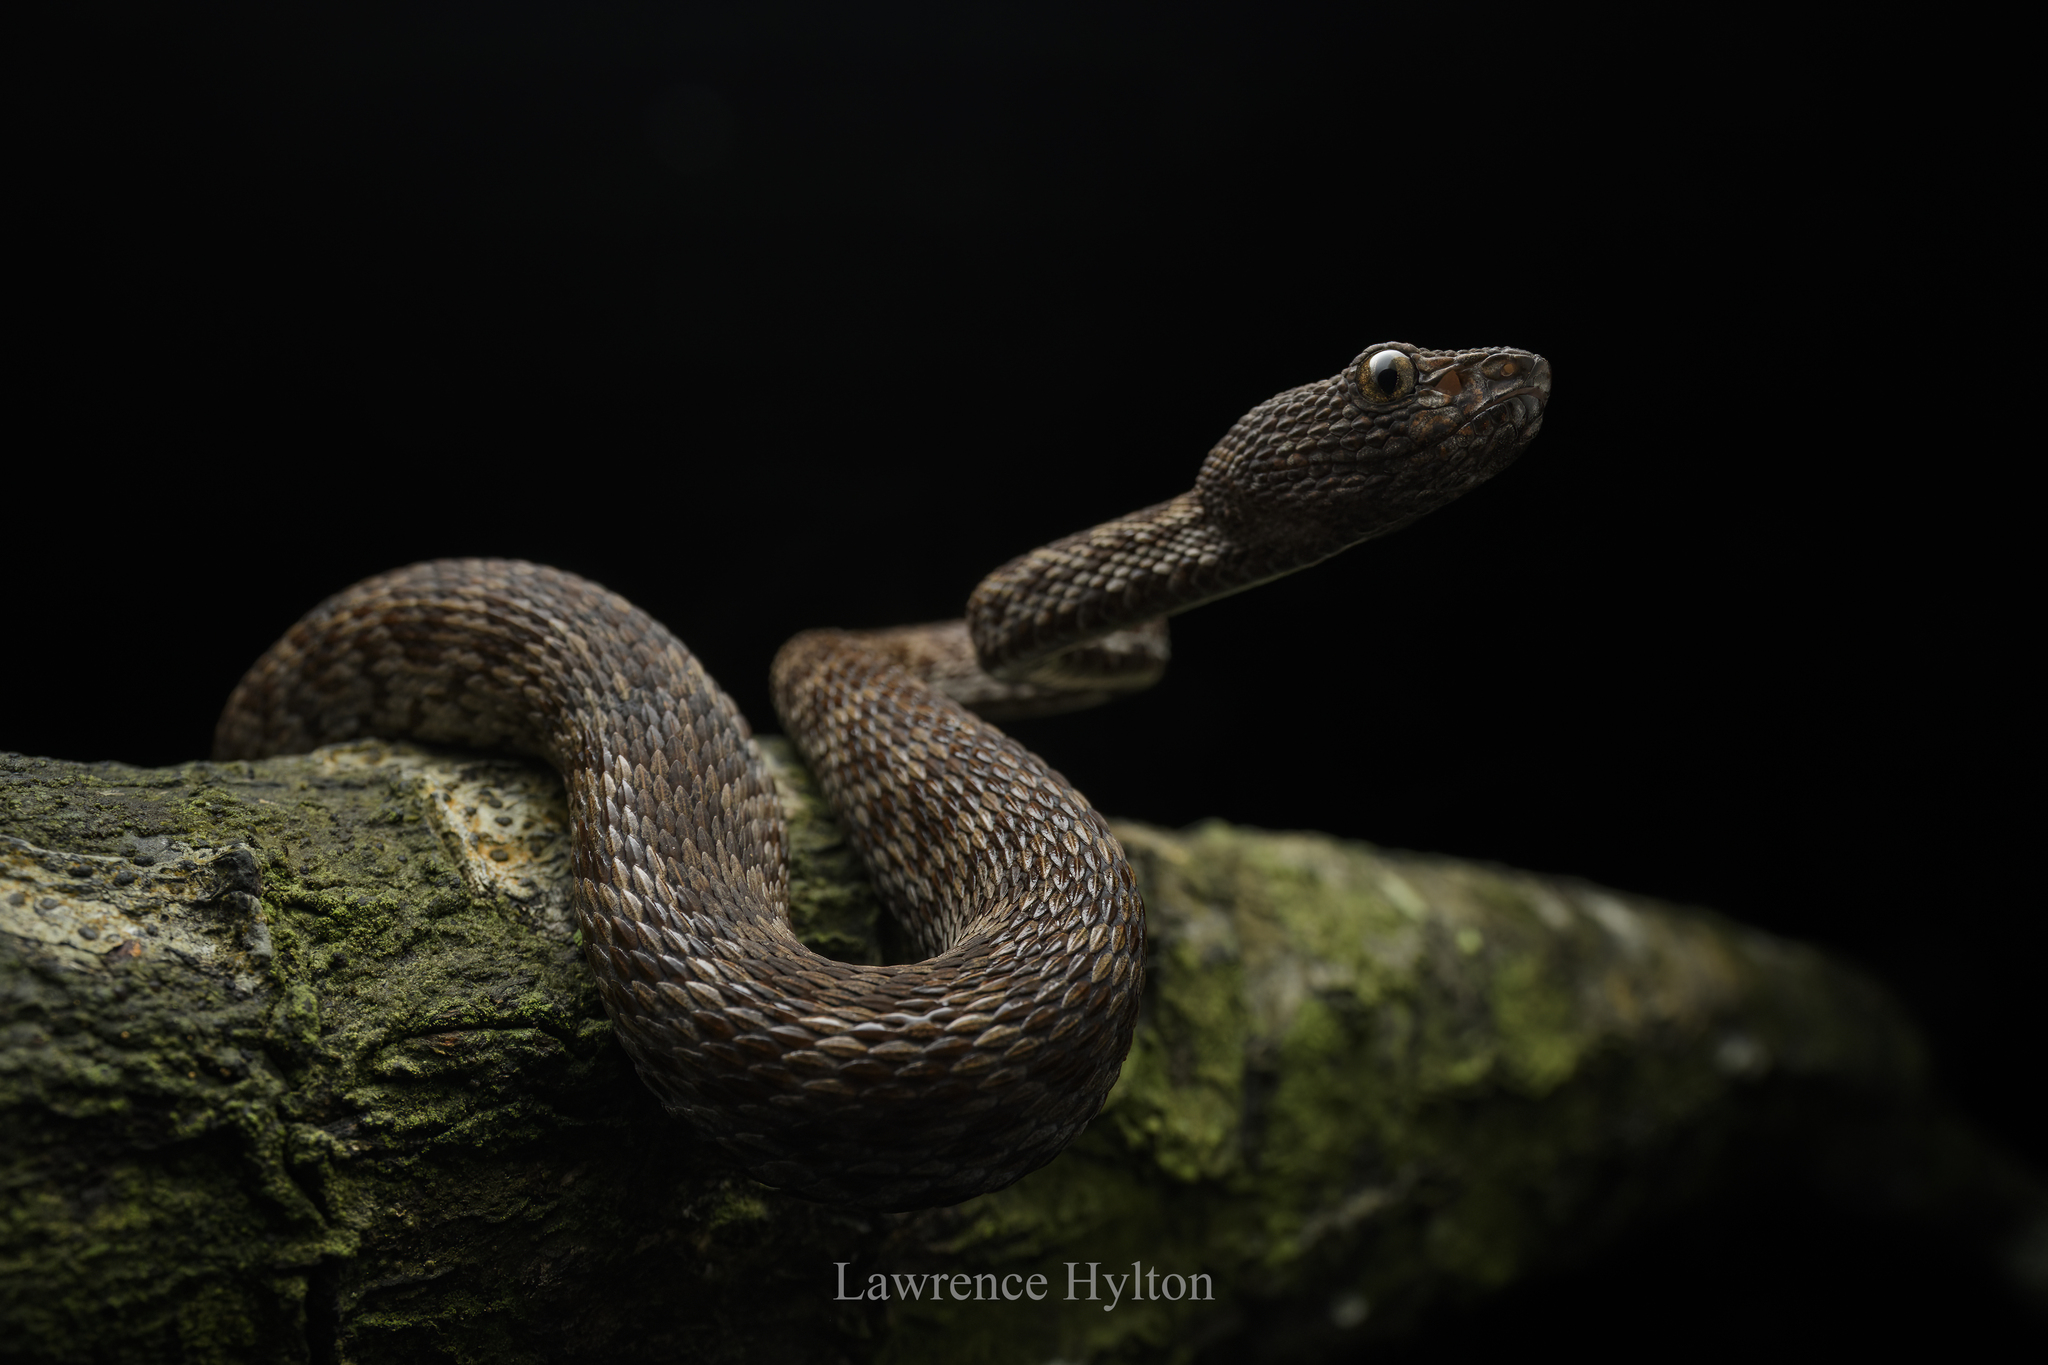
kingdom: Animalia
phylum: Chordata
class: Squamata
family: Viperidae
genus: Trimeresurus
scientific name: Trimeresurus purpureomaculatus
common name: Shore pit viper
